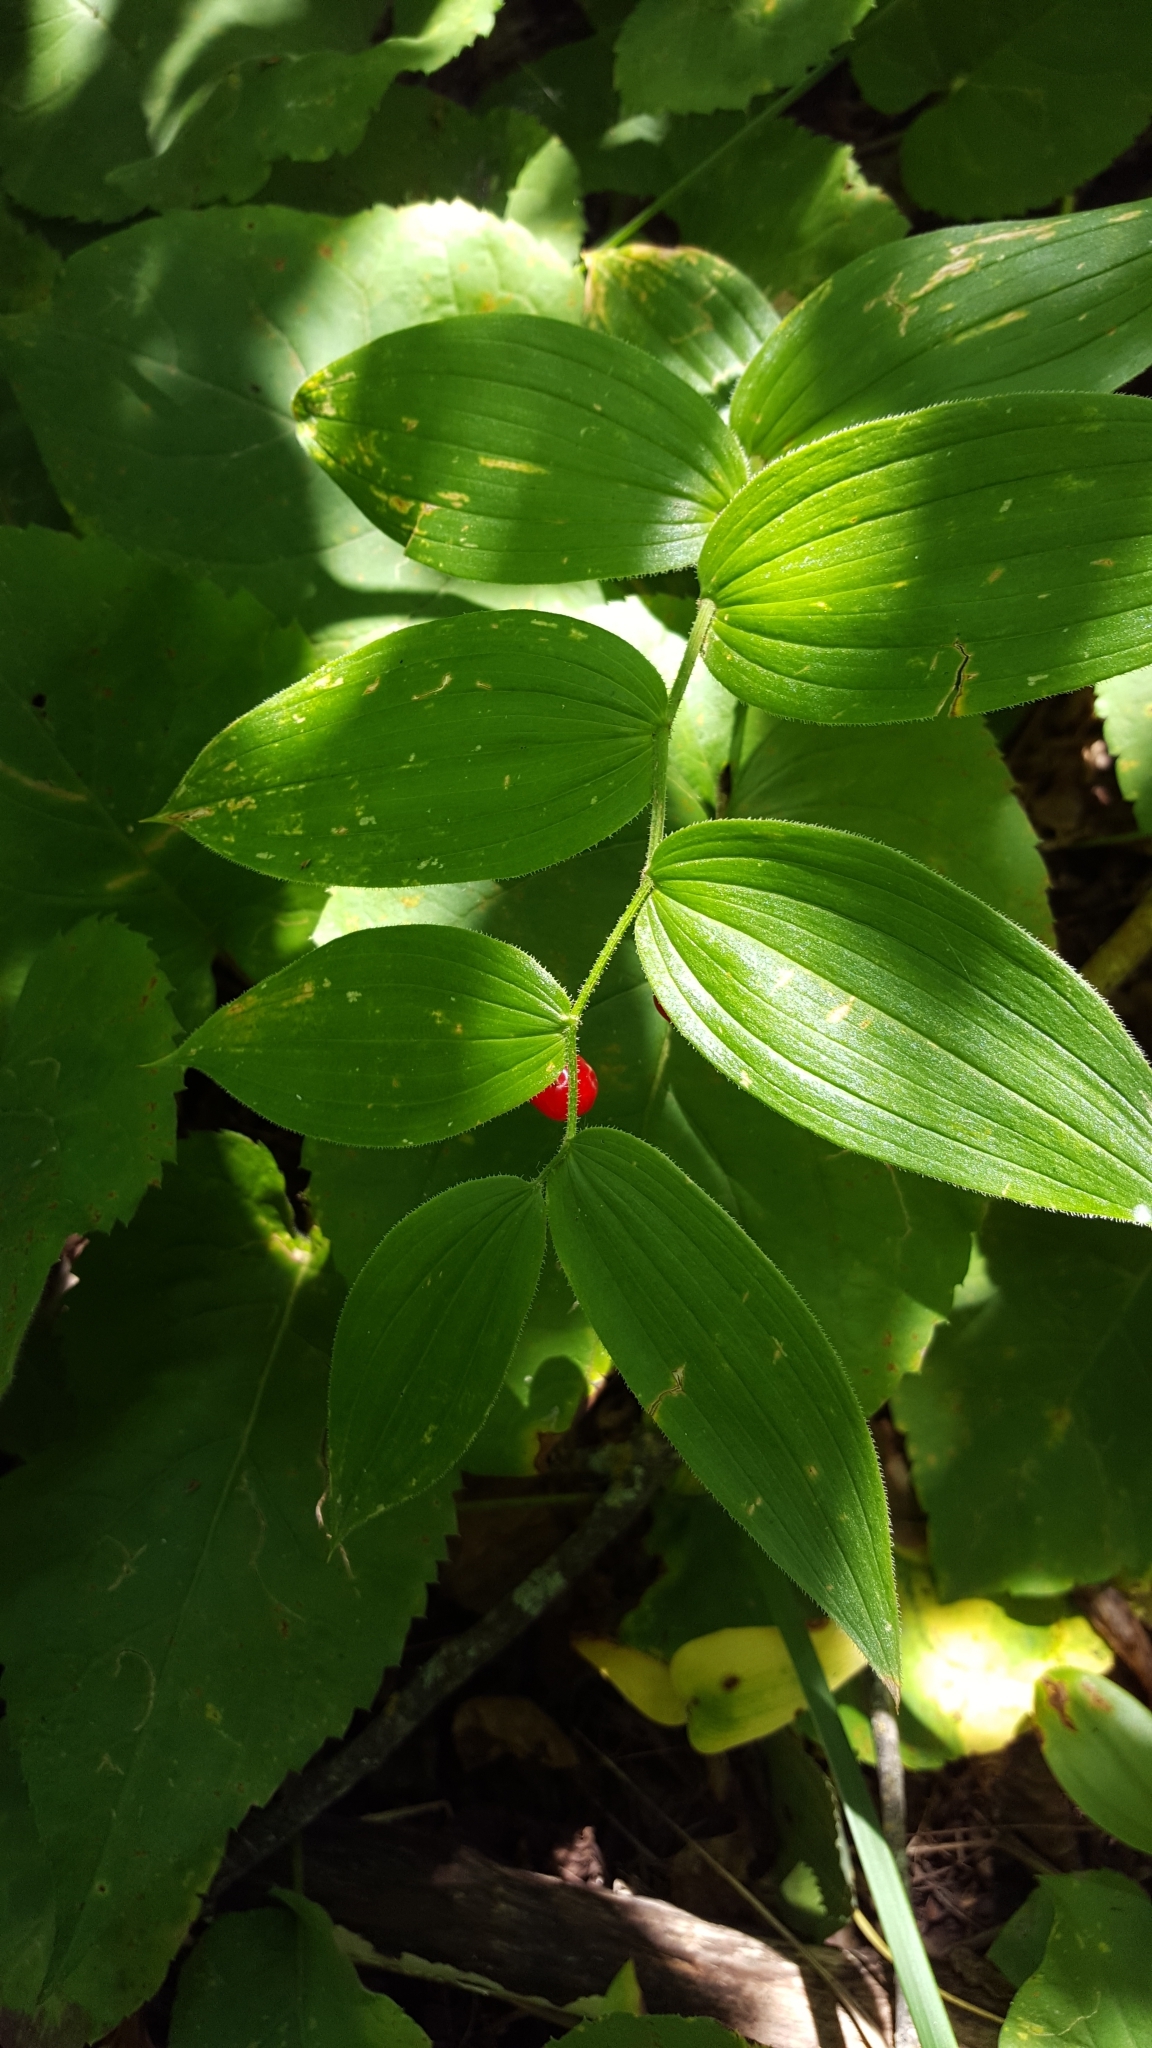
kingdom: Plantae
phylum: Tracheophyta
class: Liliopsida
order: Liliales
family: Liliaceae
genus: Streptopus
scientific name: Streptopus lanceolatus
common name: Rose mandarin
